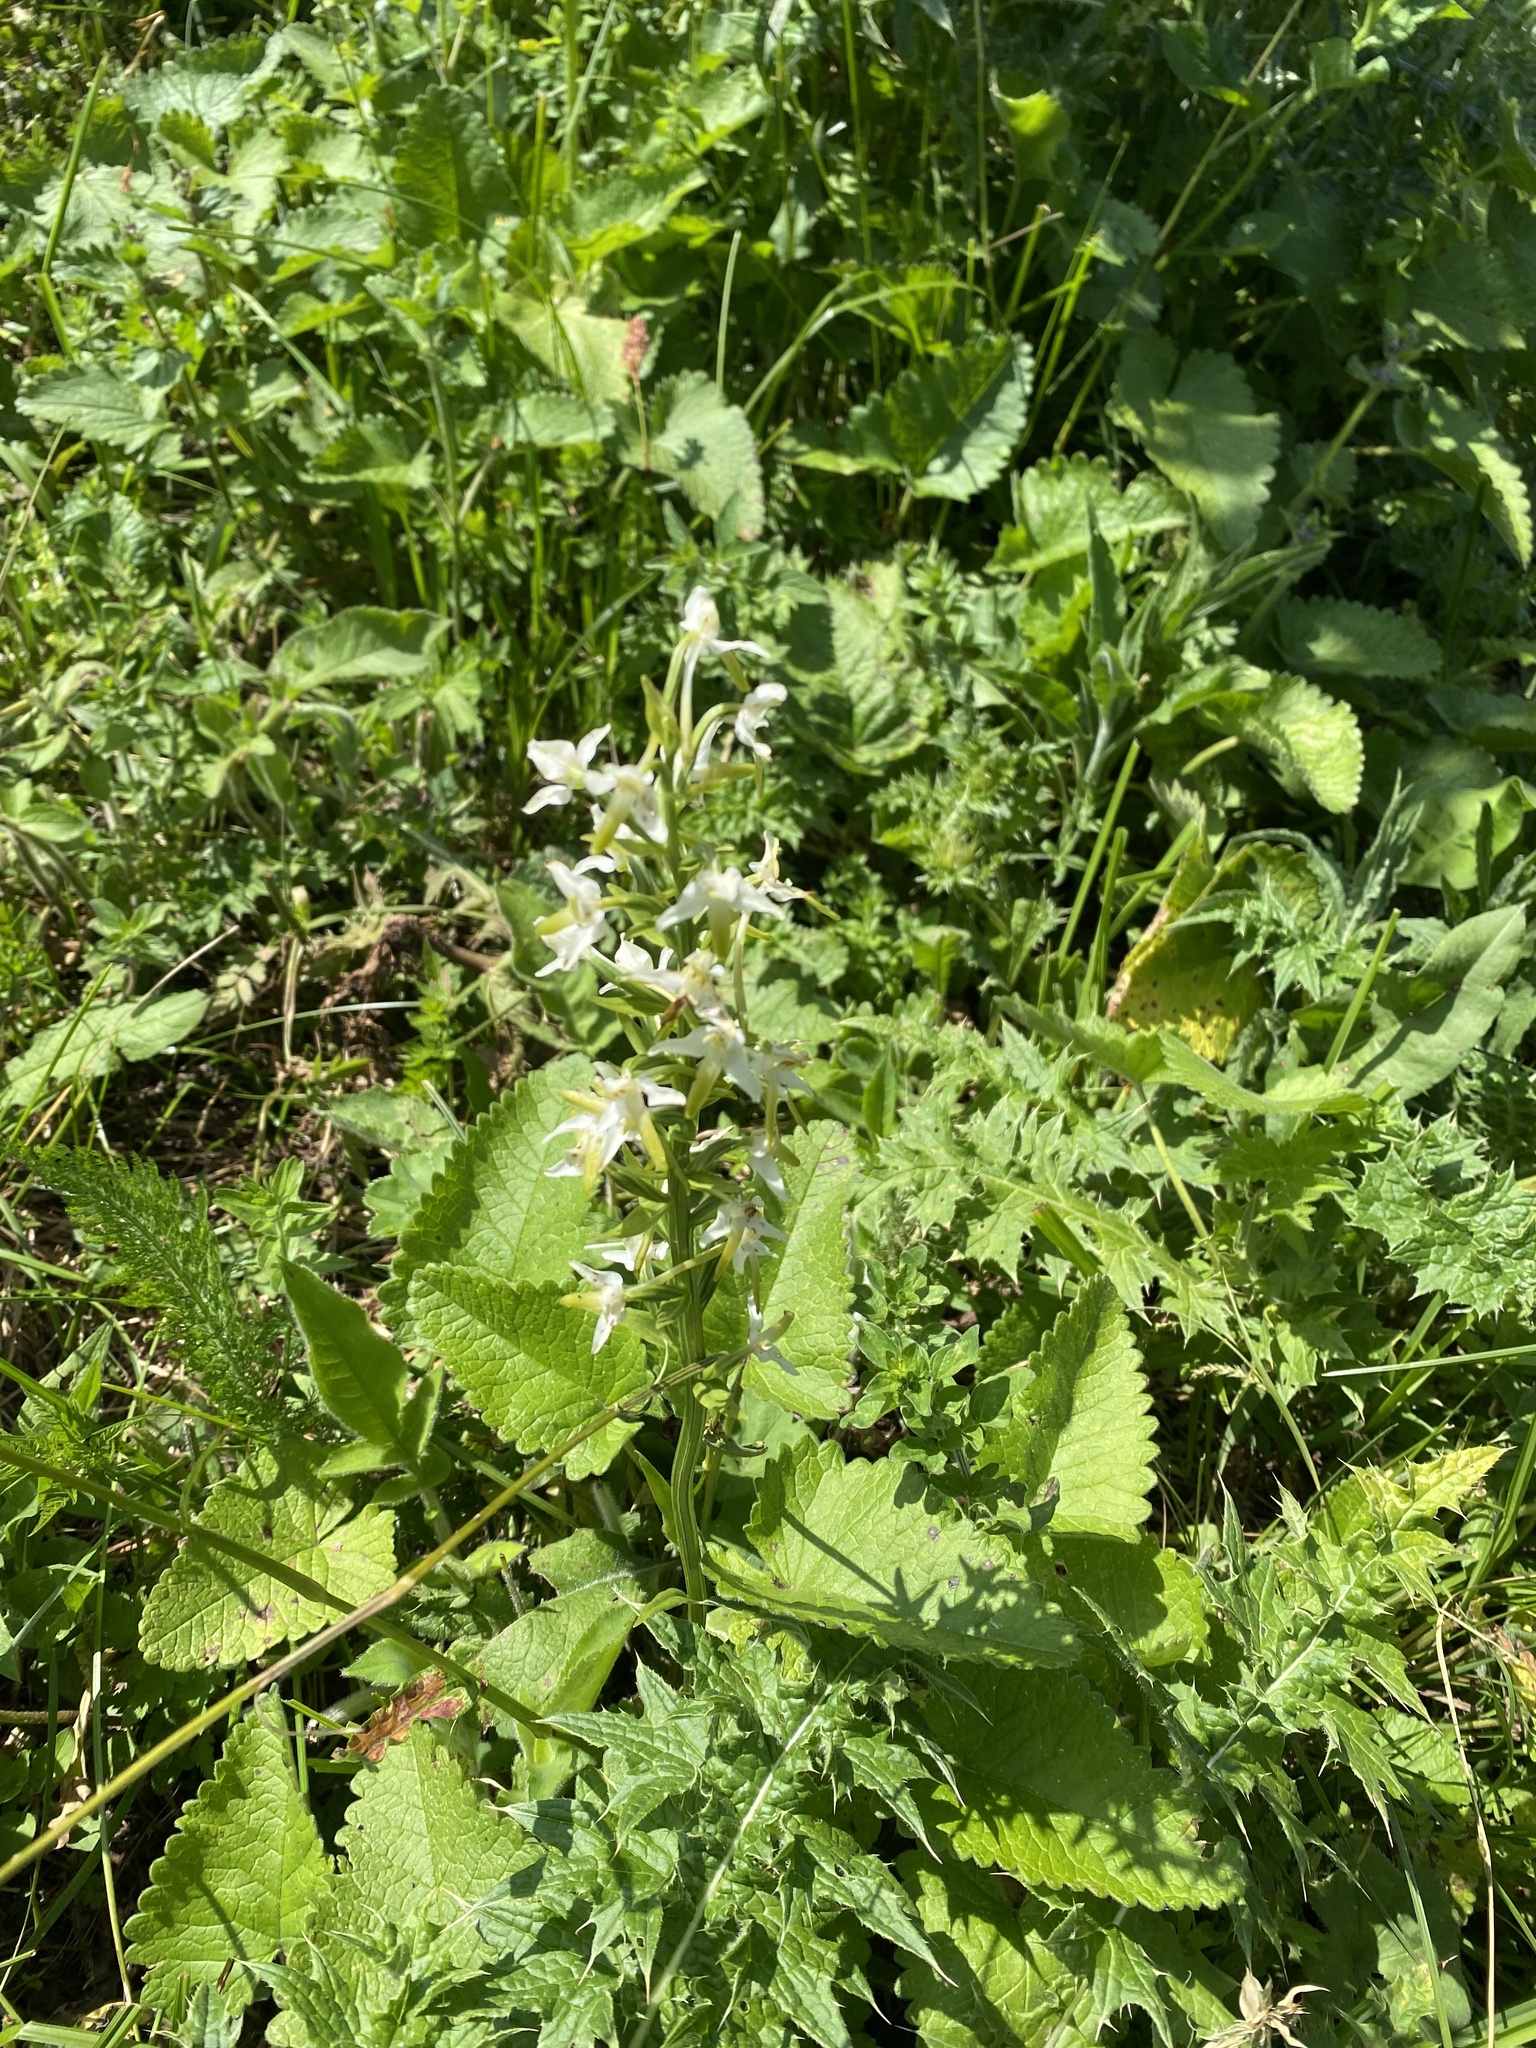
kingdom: Plantae
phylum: Tracheophyta
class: Liliopsida
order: Asparagales
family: Orchidaceae
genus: Platanthera
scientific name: Platanthera chlorantha
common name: Greater butterfly-orchid
